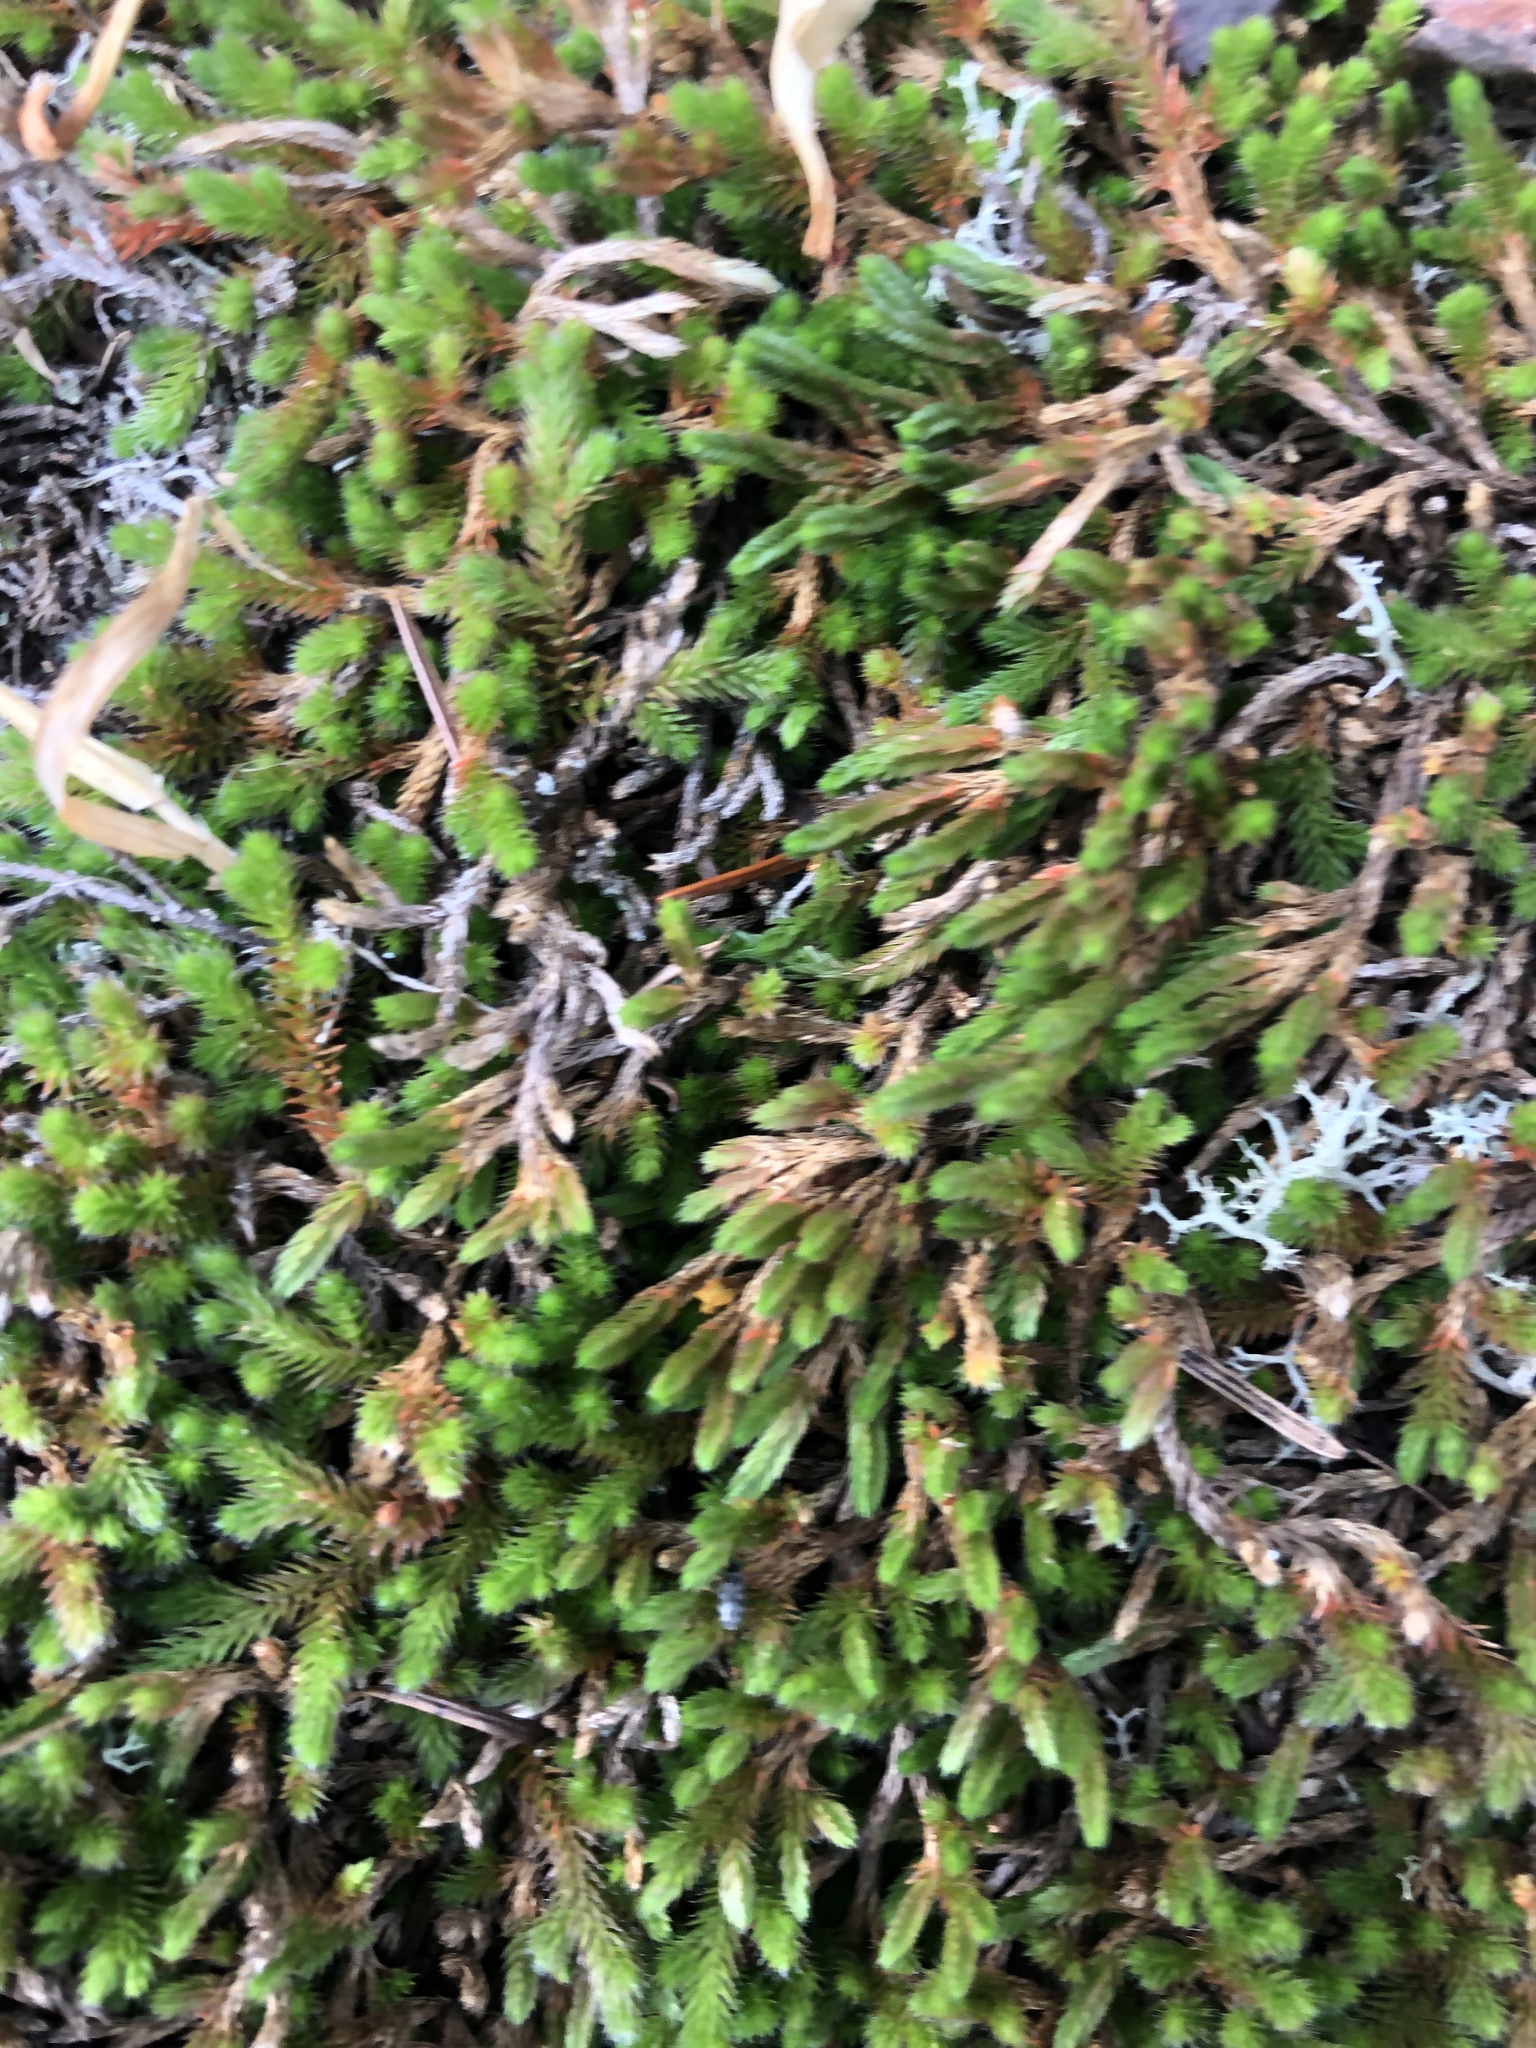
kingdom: Plantae
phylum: Tracheophyta
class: Lycopodiopsida
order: Selaginellales
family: Selaginellaceae
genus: Selaginella
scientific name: Selaginella wallacei
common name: Wallace's selaginella
